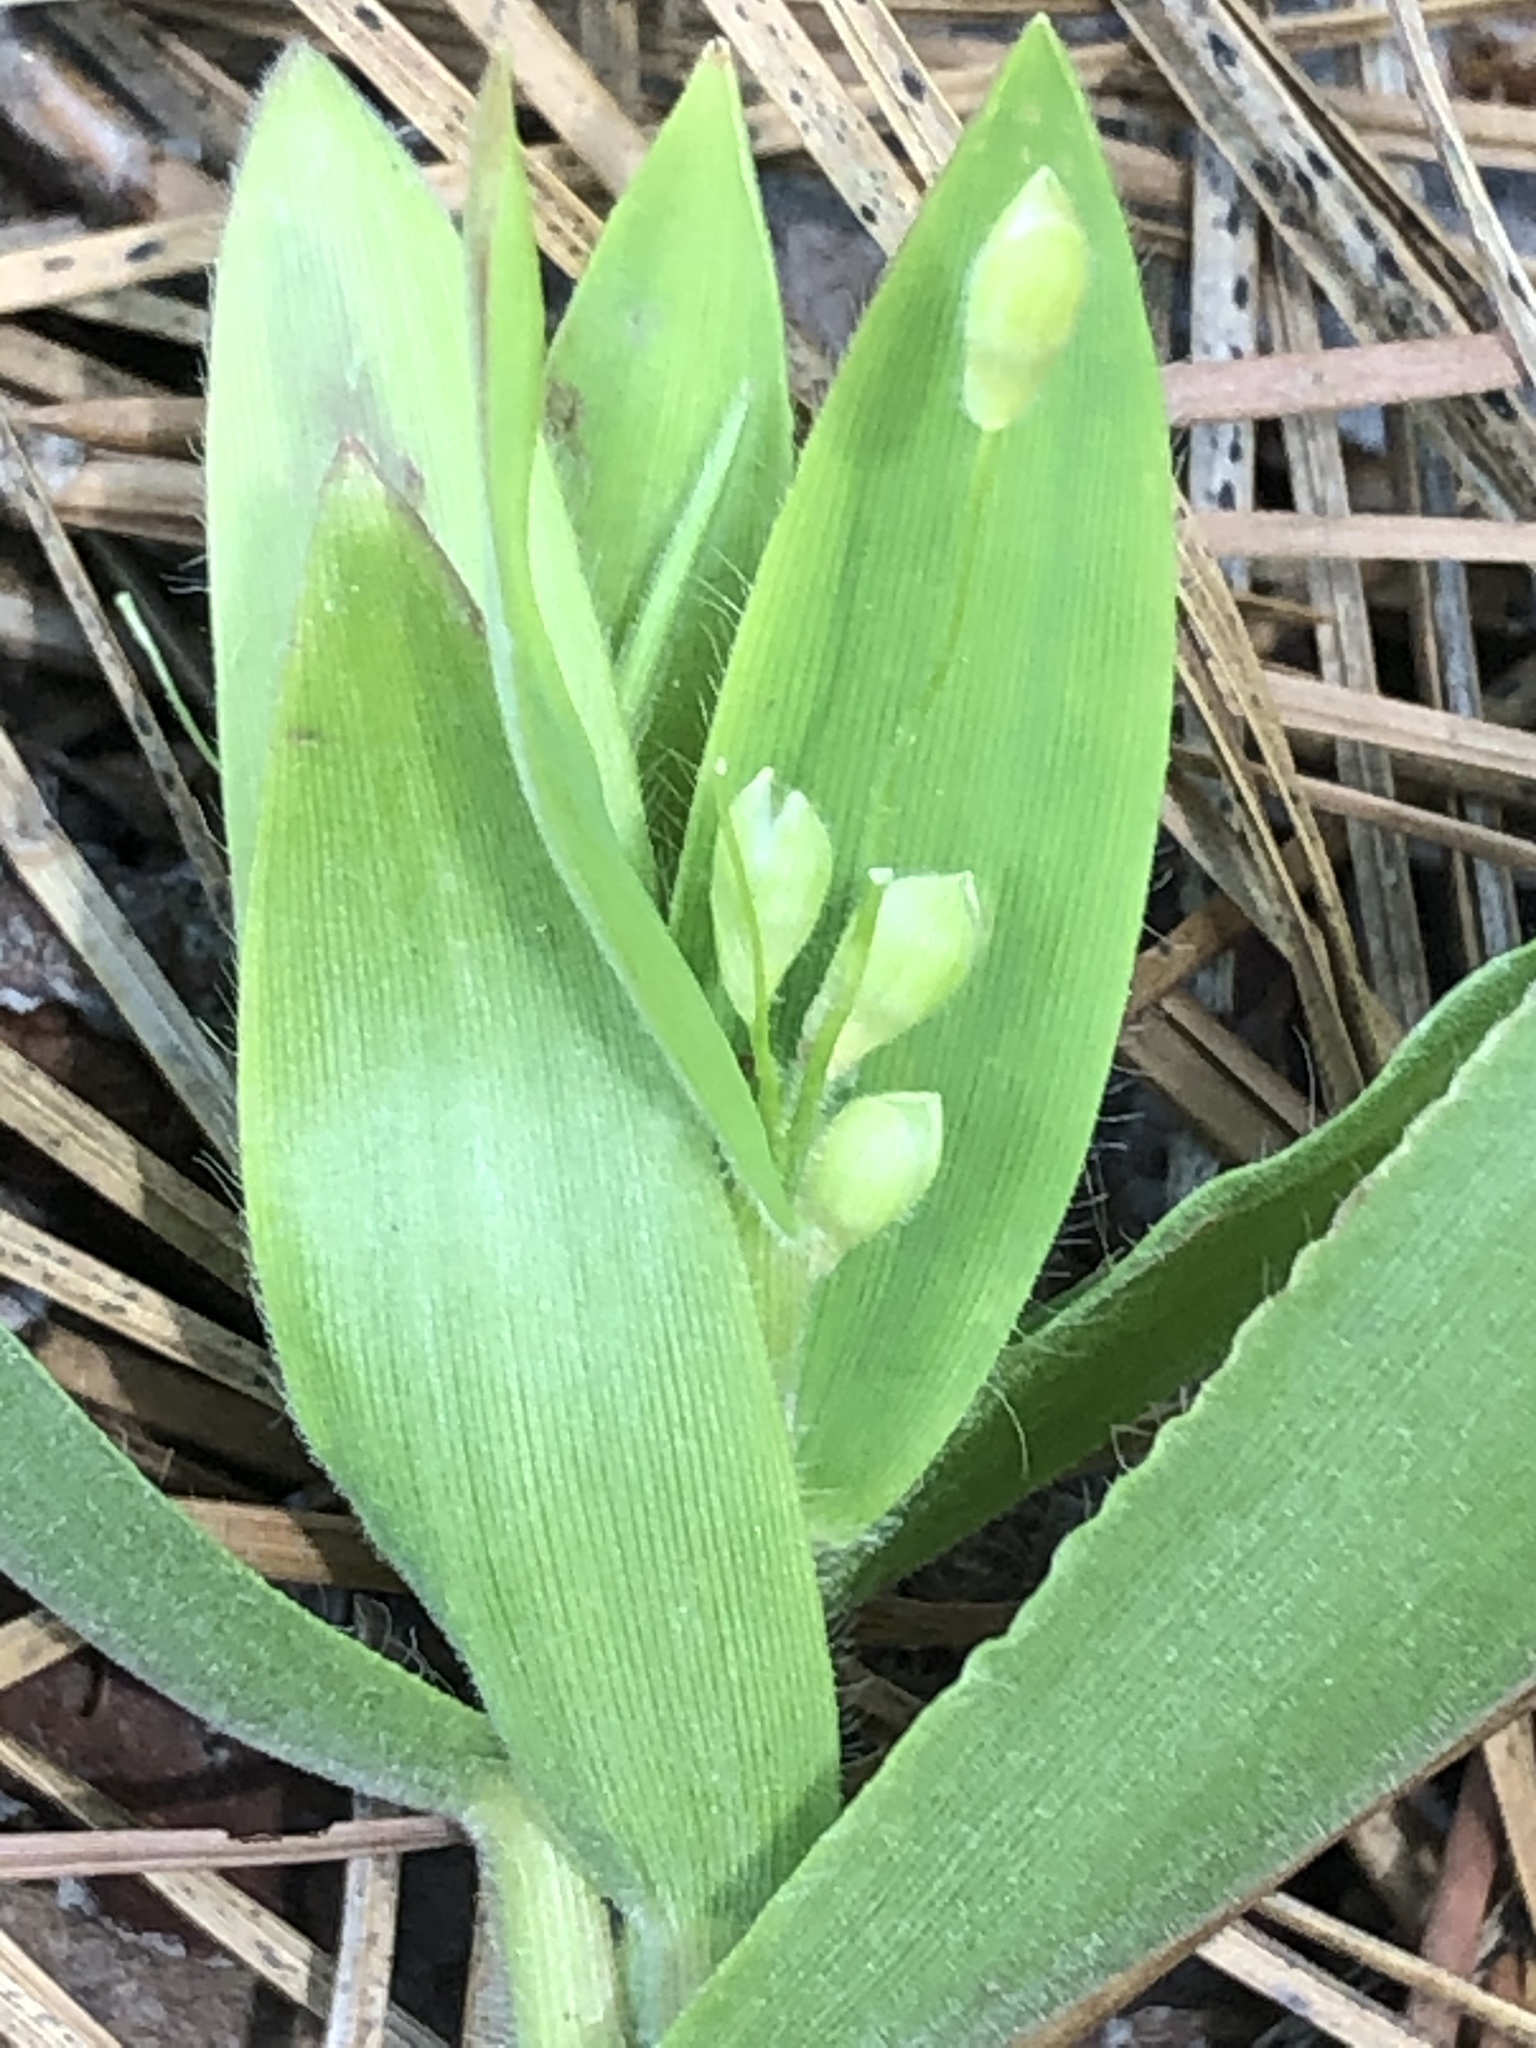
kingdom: Plantae
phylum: Tracheophyta
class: Liliopsida
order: Poales
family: Poaceae
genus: Dichanthelium
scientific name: Dichanthelium ravenelii
